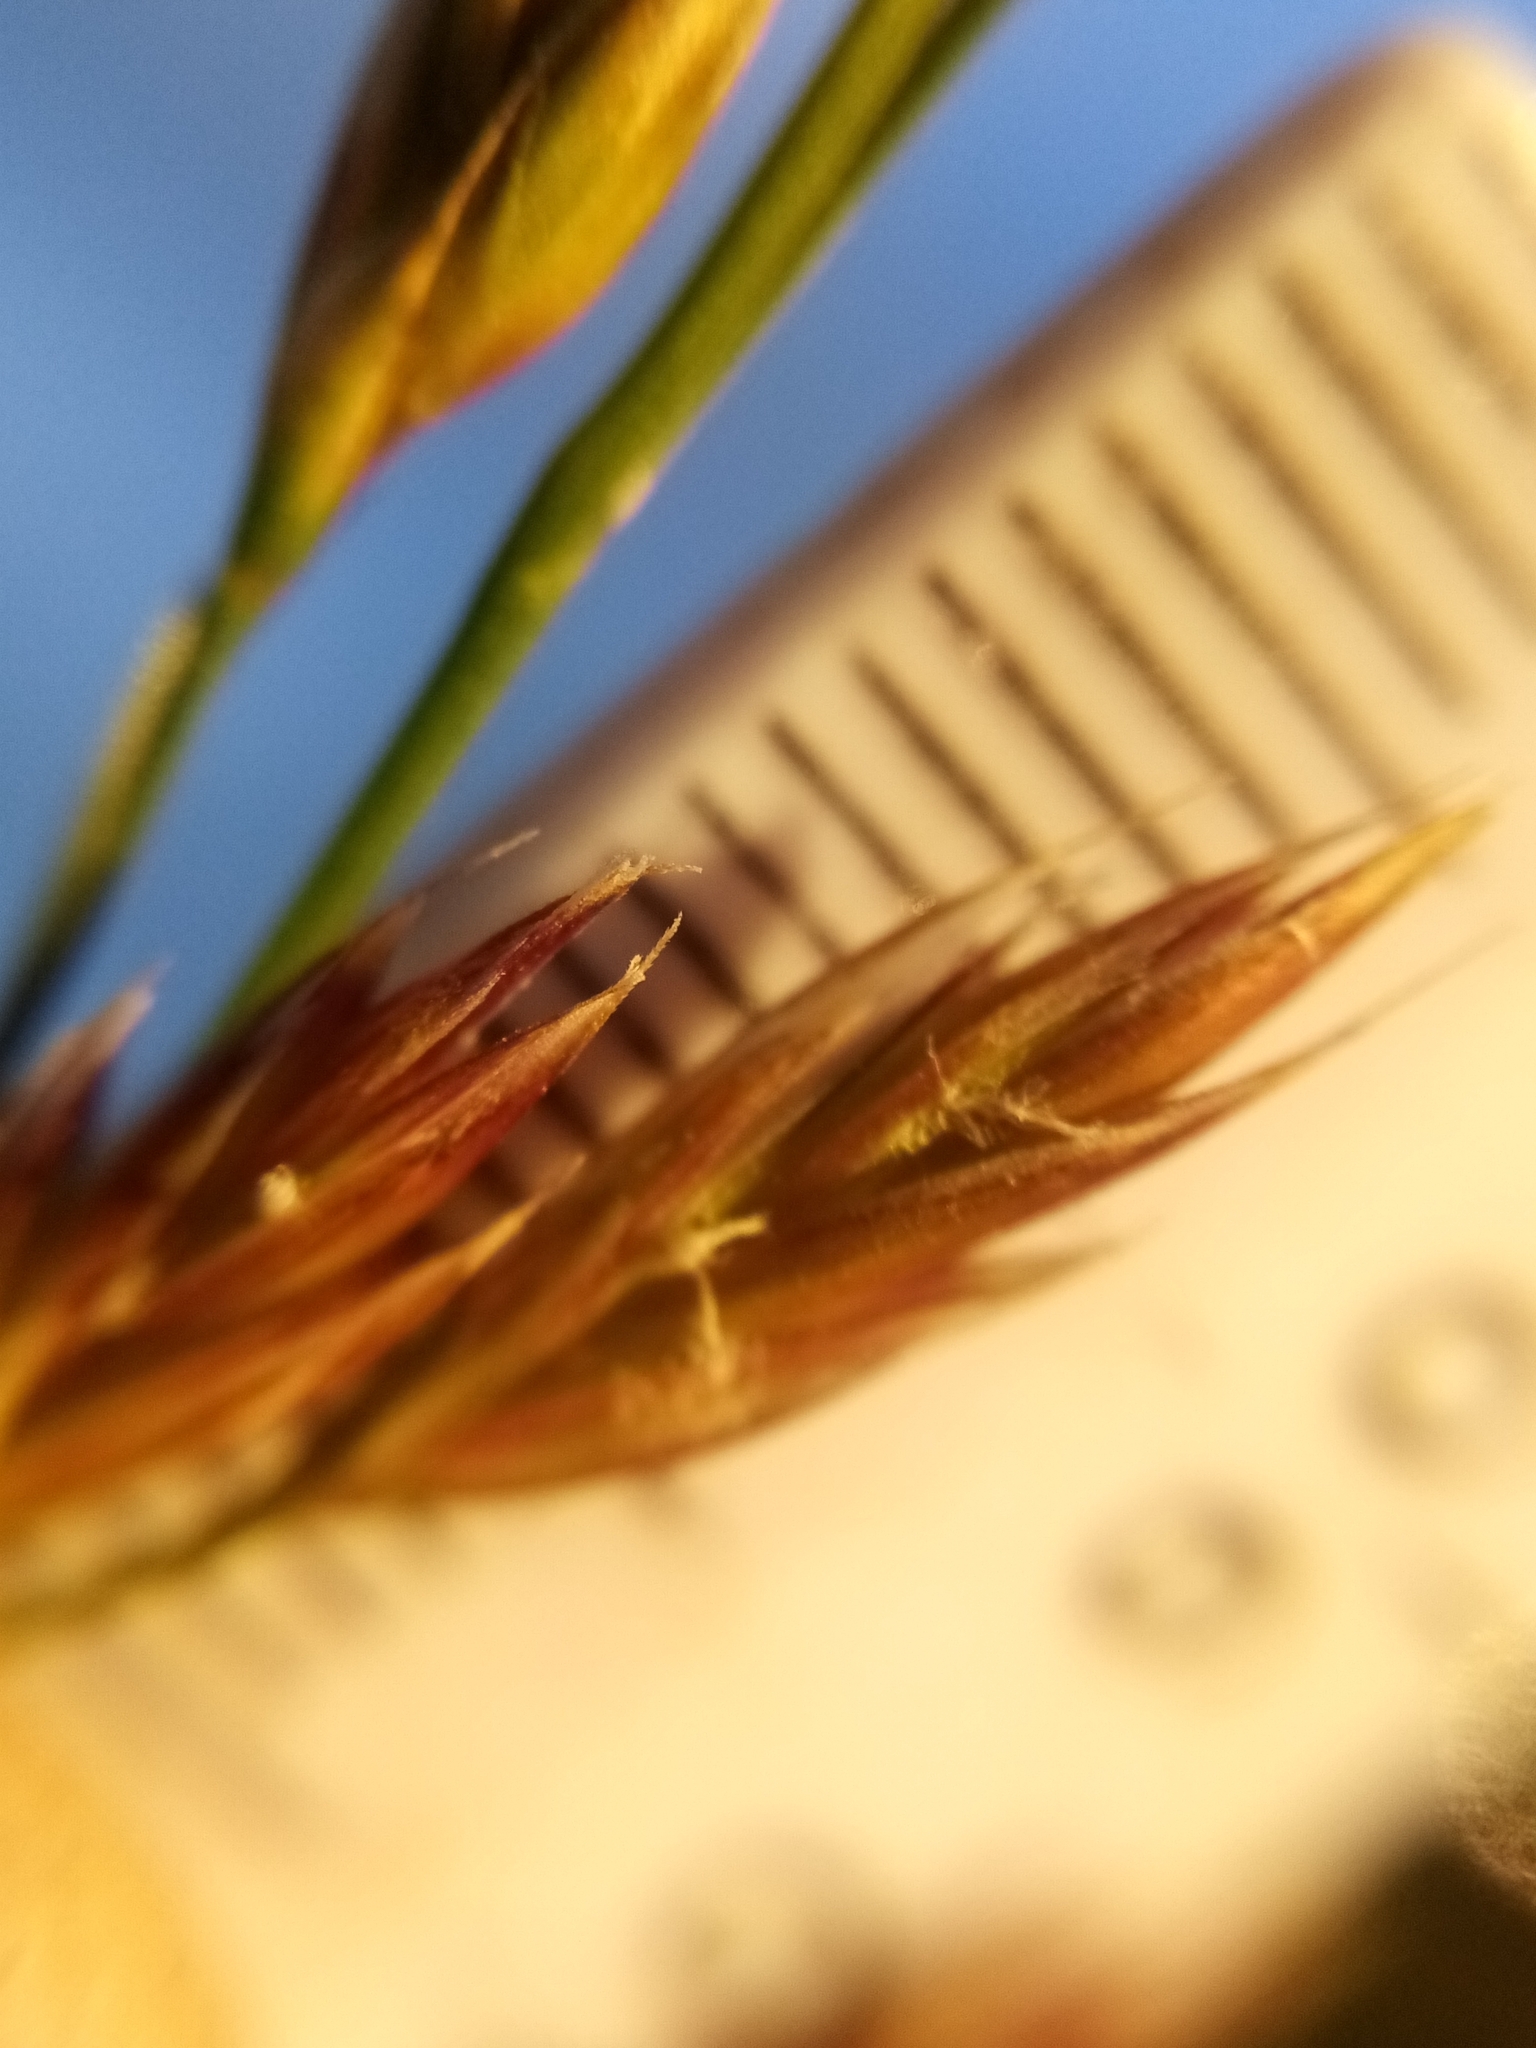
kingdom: Plantae
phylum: Tracheophyta
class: Liliopsida
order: Poales
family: Poaceae
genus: Lolium
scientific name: Lolium arundinaceum
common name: Reed fescue
